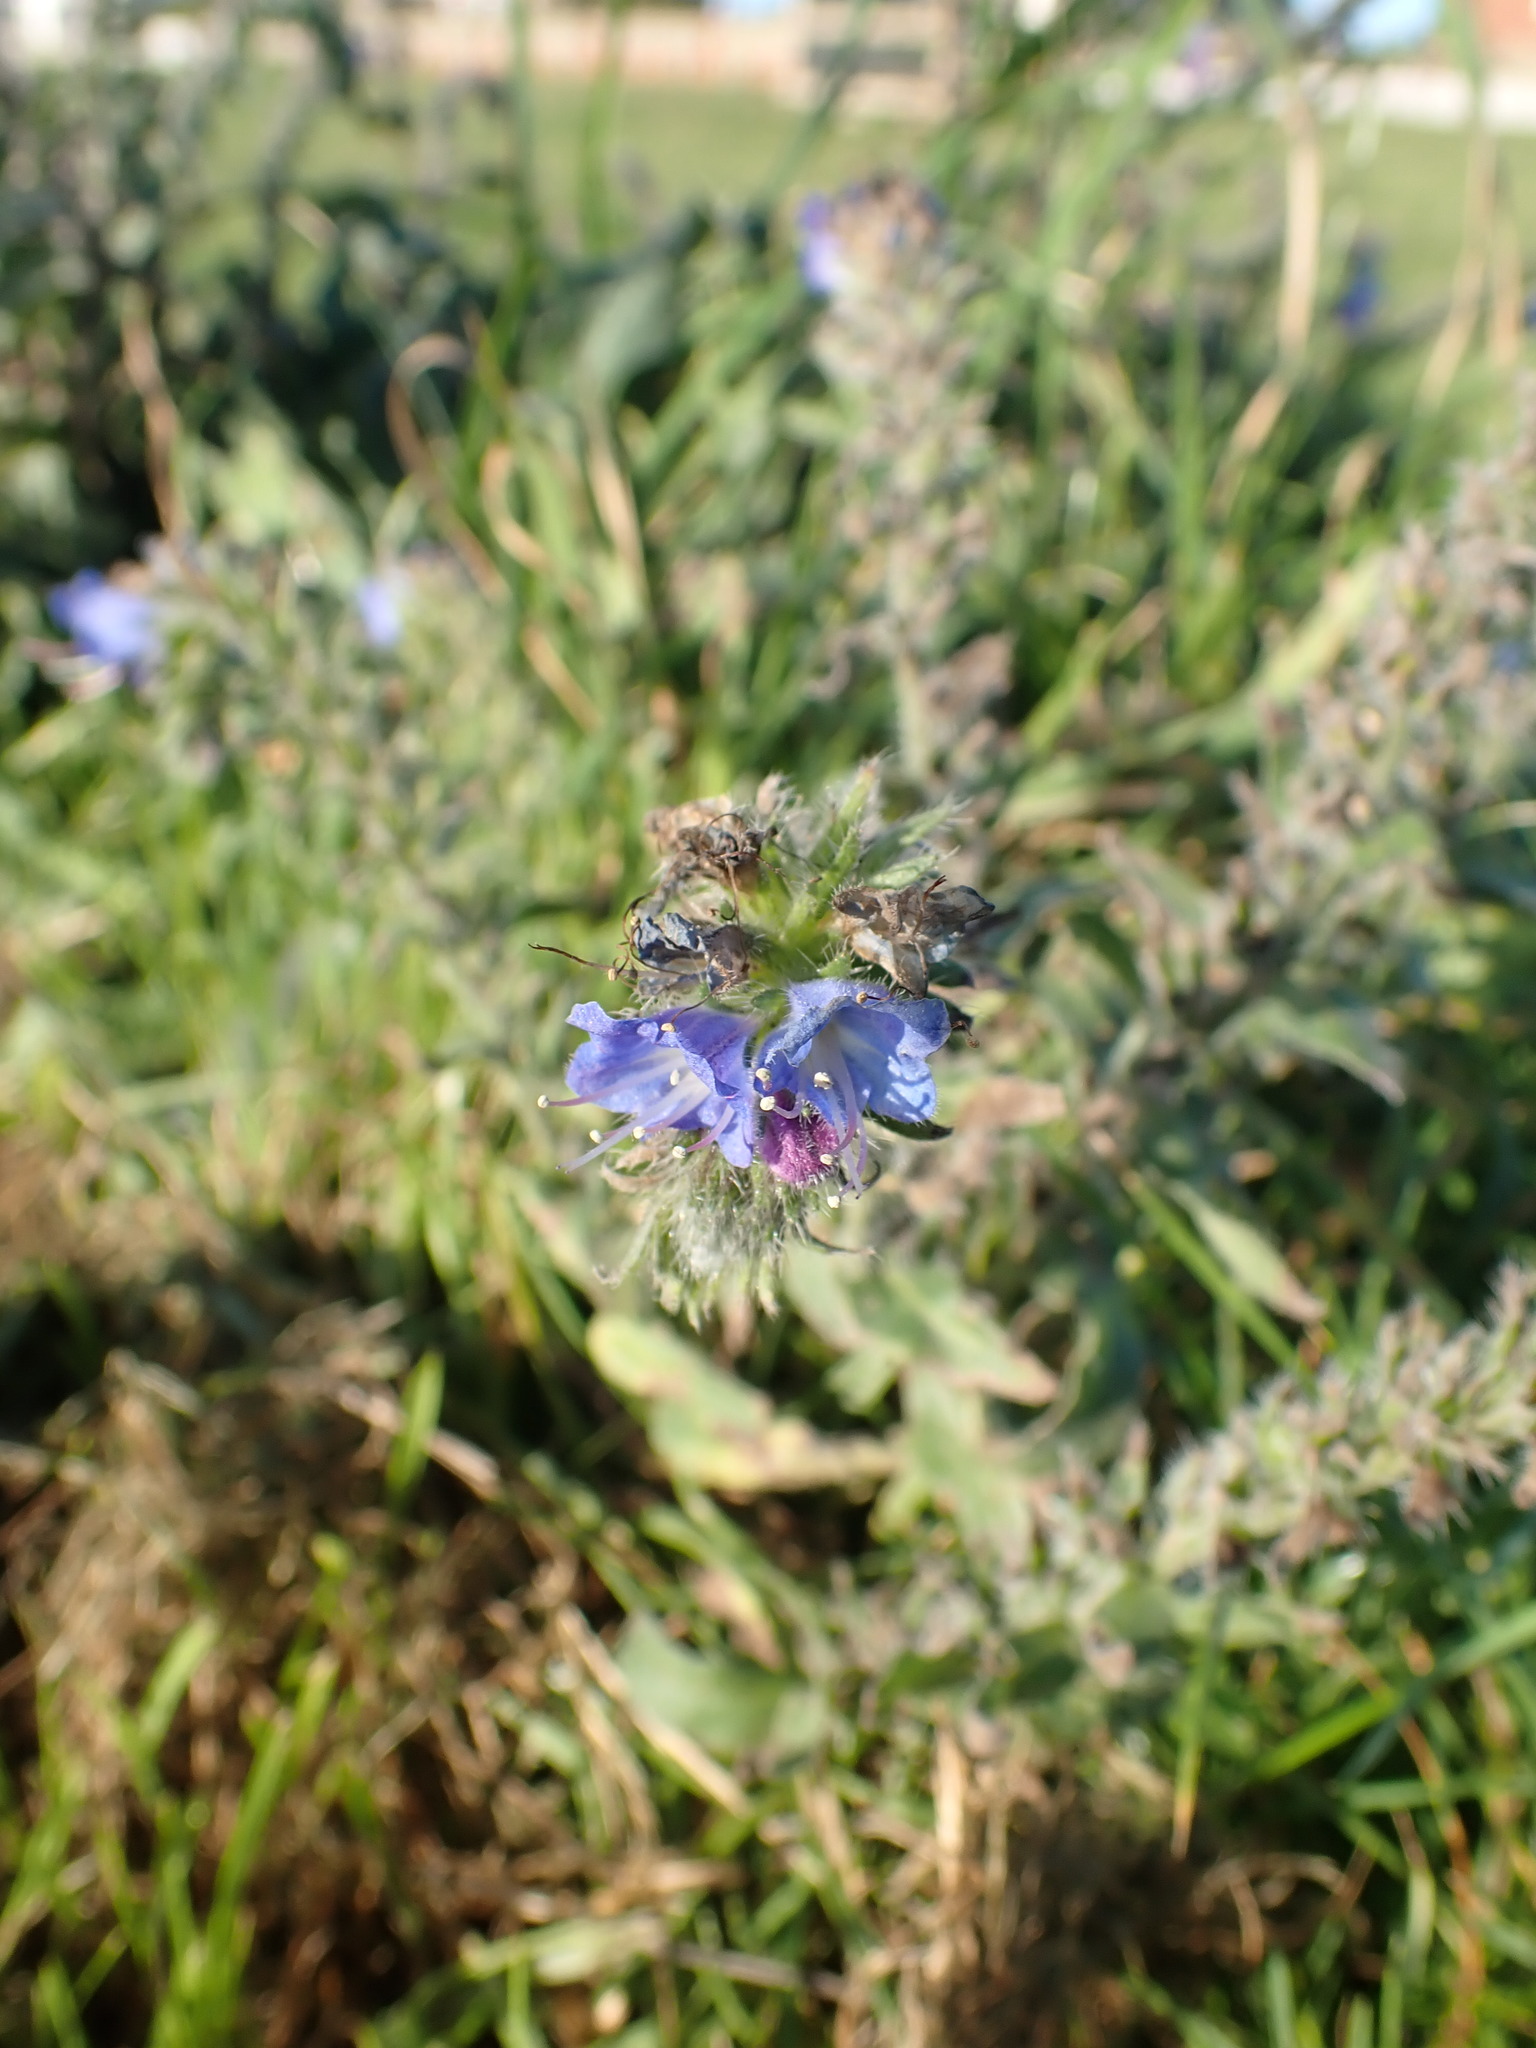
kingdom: Plantae
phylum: Tracheophyta
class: Magnoliopsida
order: Boraginales
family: Boraginaceae
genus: Echium
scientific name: Echium vulgare
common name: Common viper's bugloss
